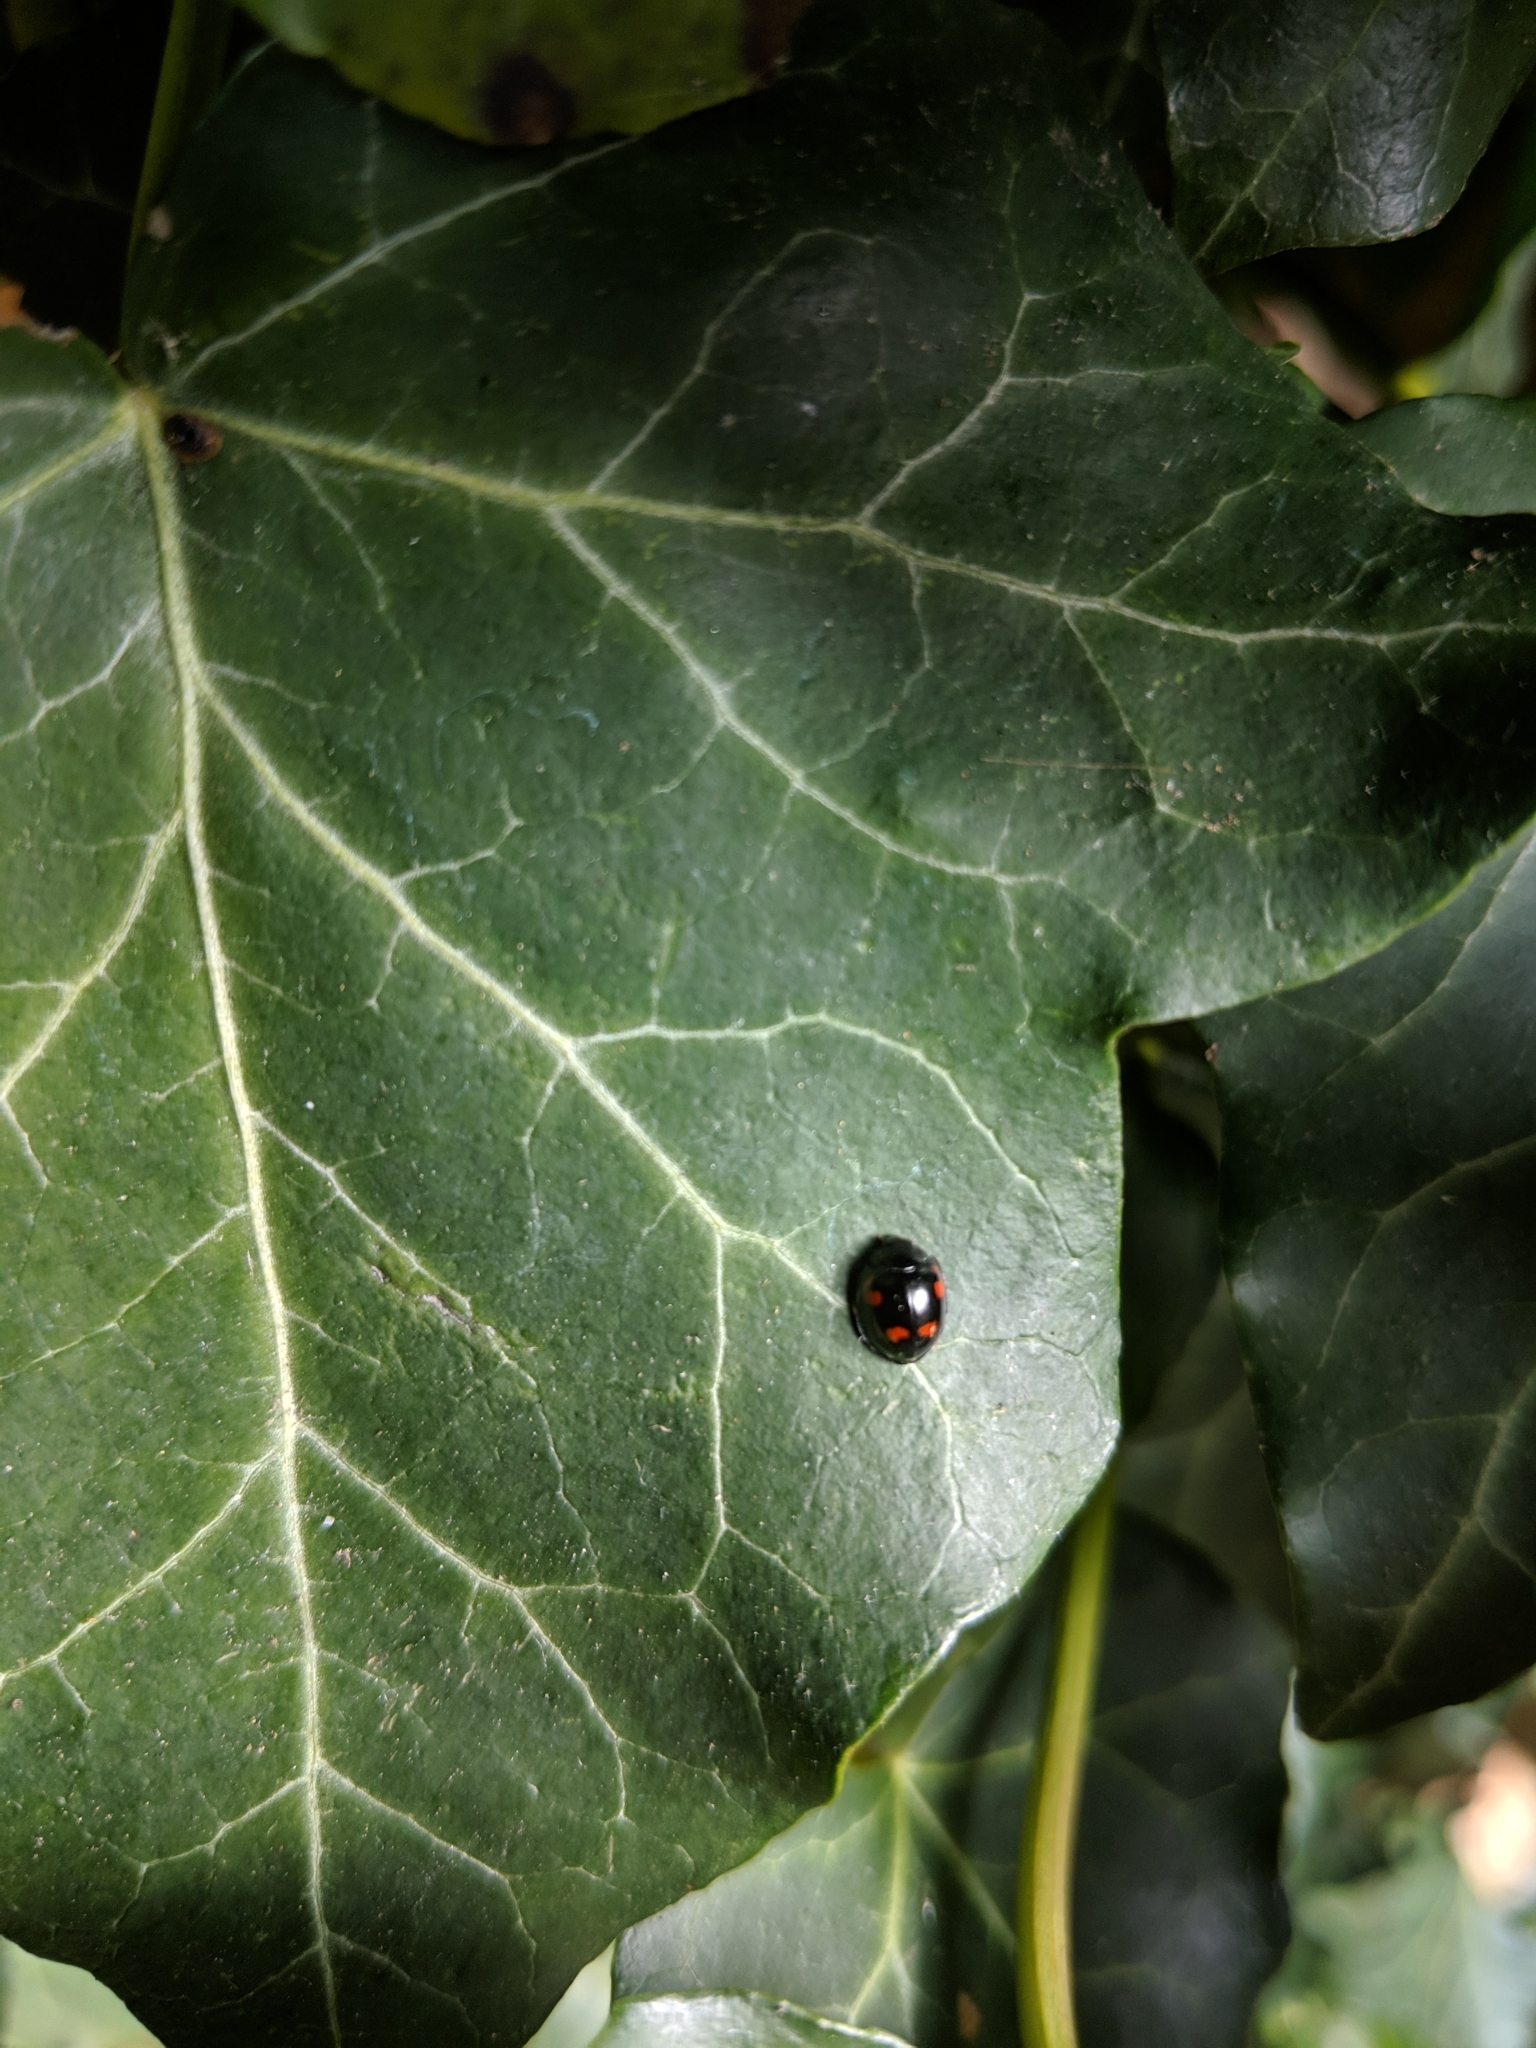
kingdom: Animalia
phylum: Arthropoda
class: Insecta
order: Coleoptera
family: Coccinellidae
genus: Brumus
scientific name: Brumus quadripustulatus
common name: Ladybird beetle
